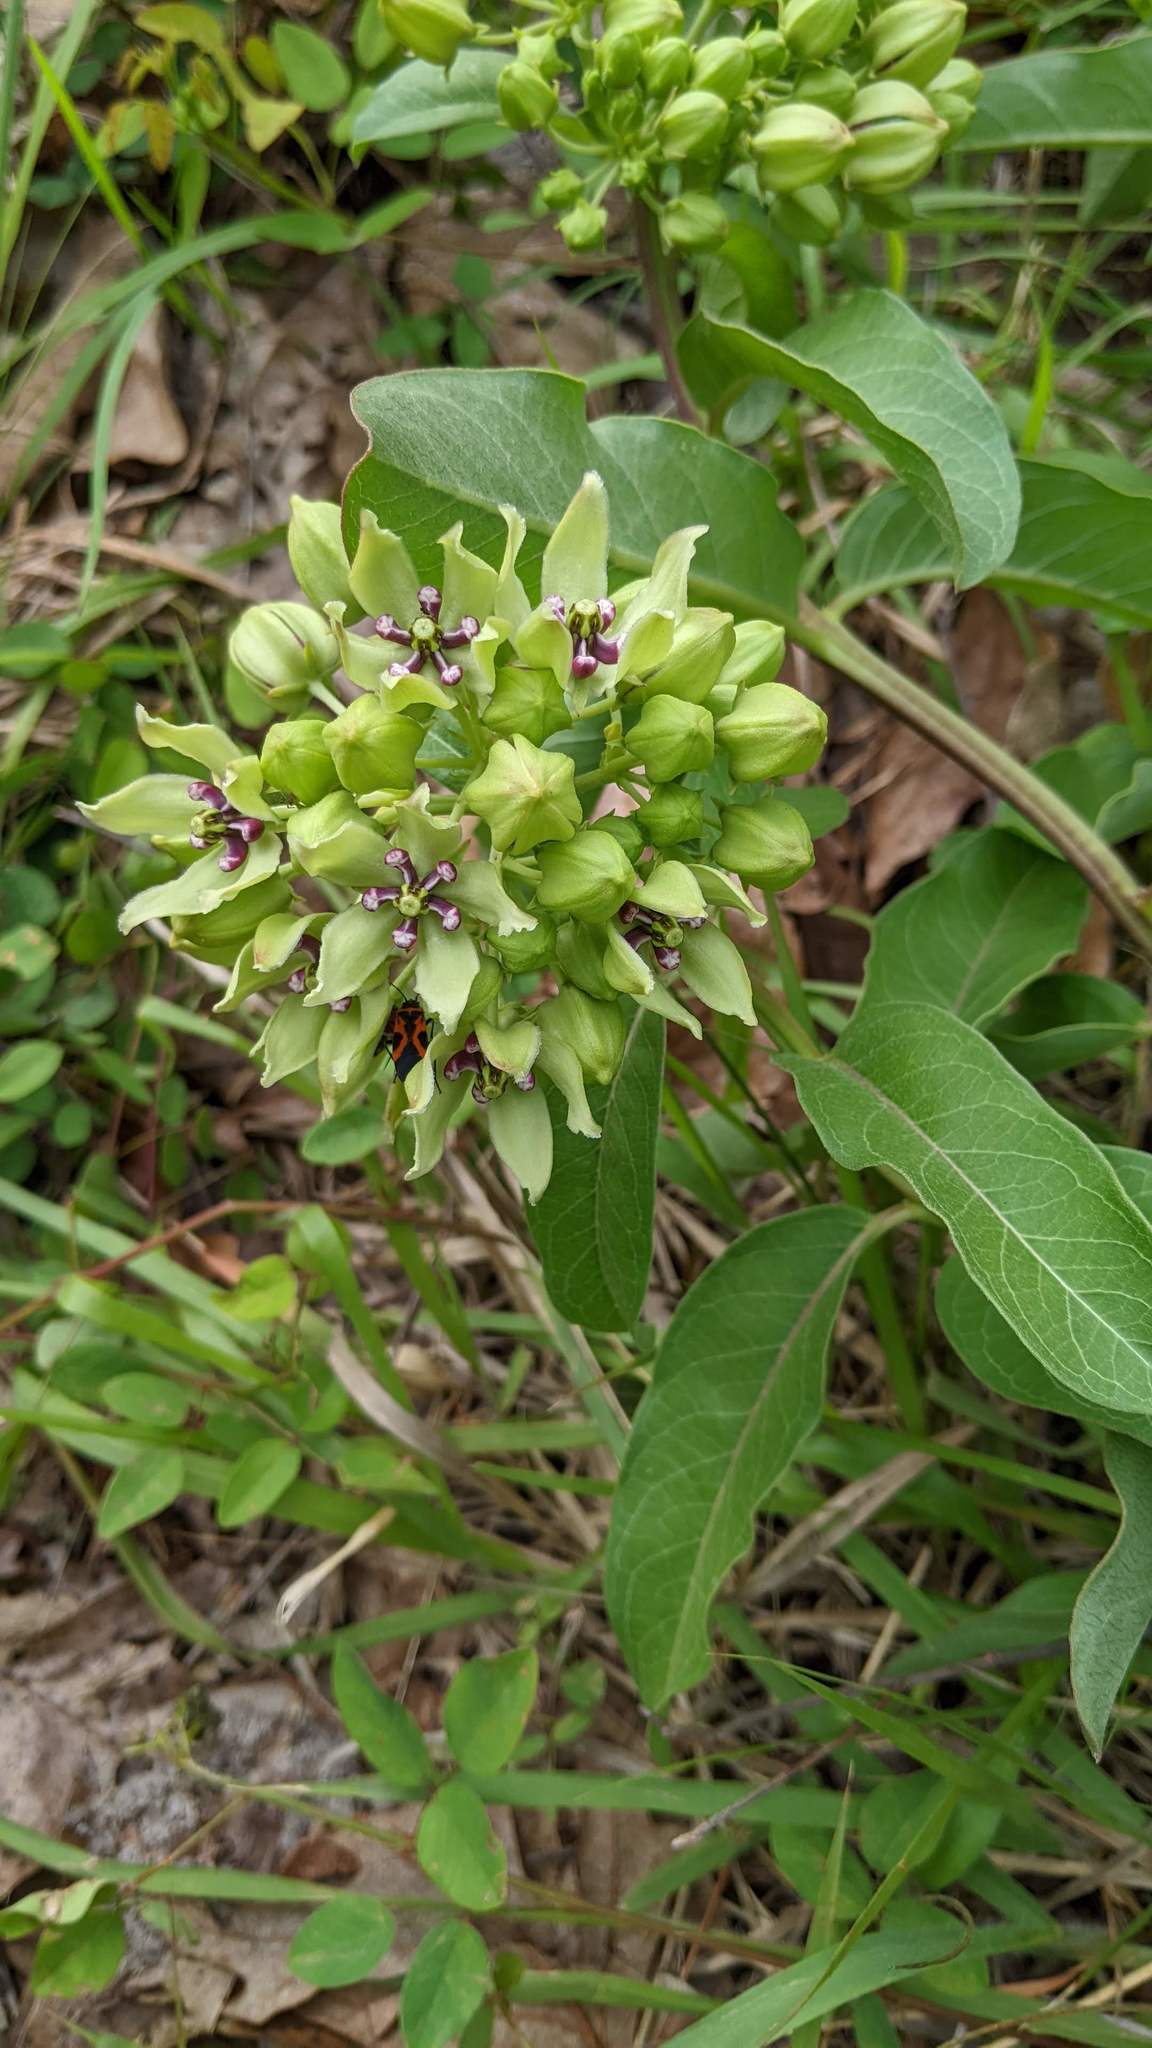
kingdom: Plantae
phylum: Tracheophyta
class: Magnoliopsida
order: Gentianales
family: Apocynaceae
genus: Asclepias
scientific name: Asclepias viridis
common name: Antelope-horns
